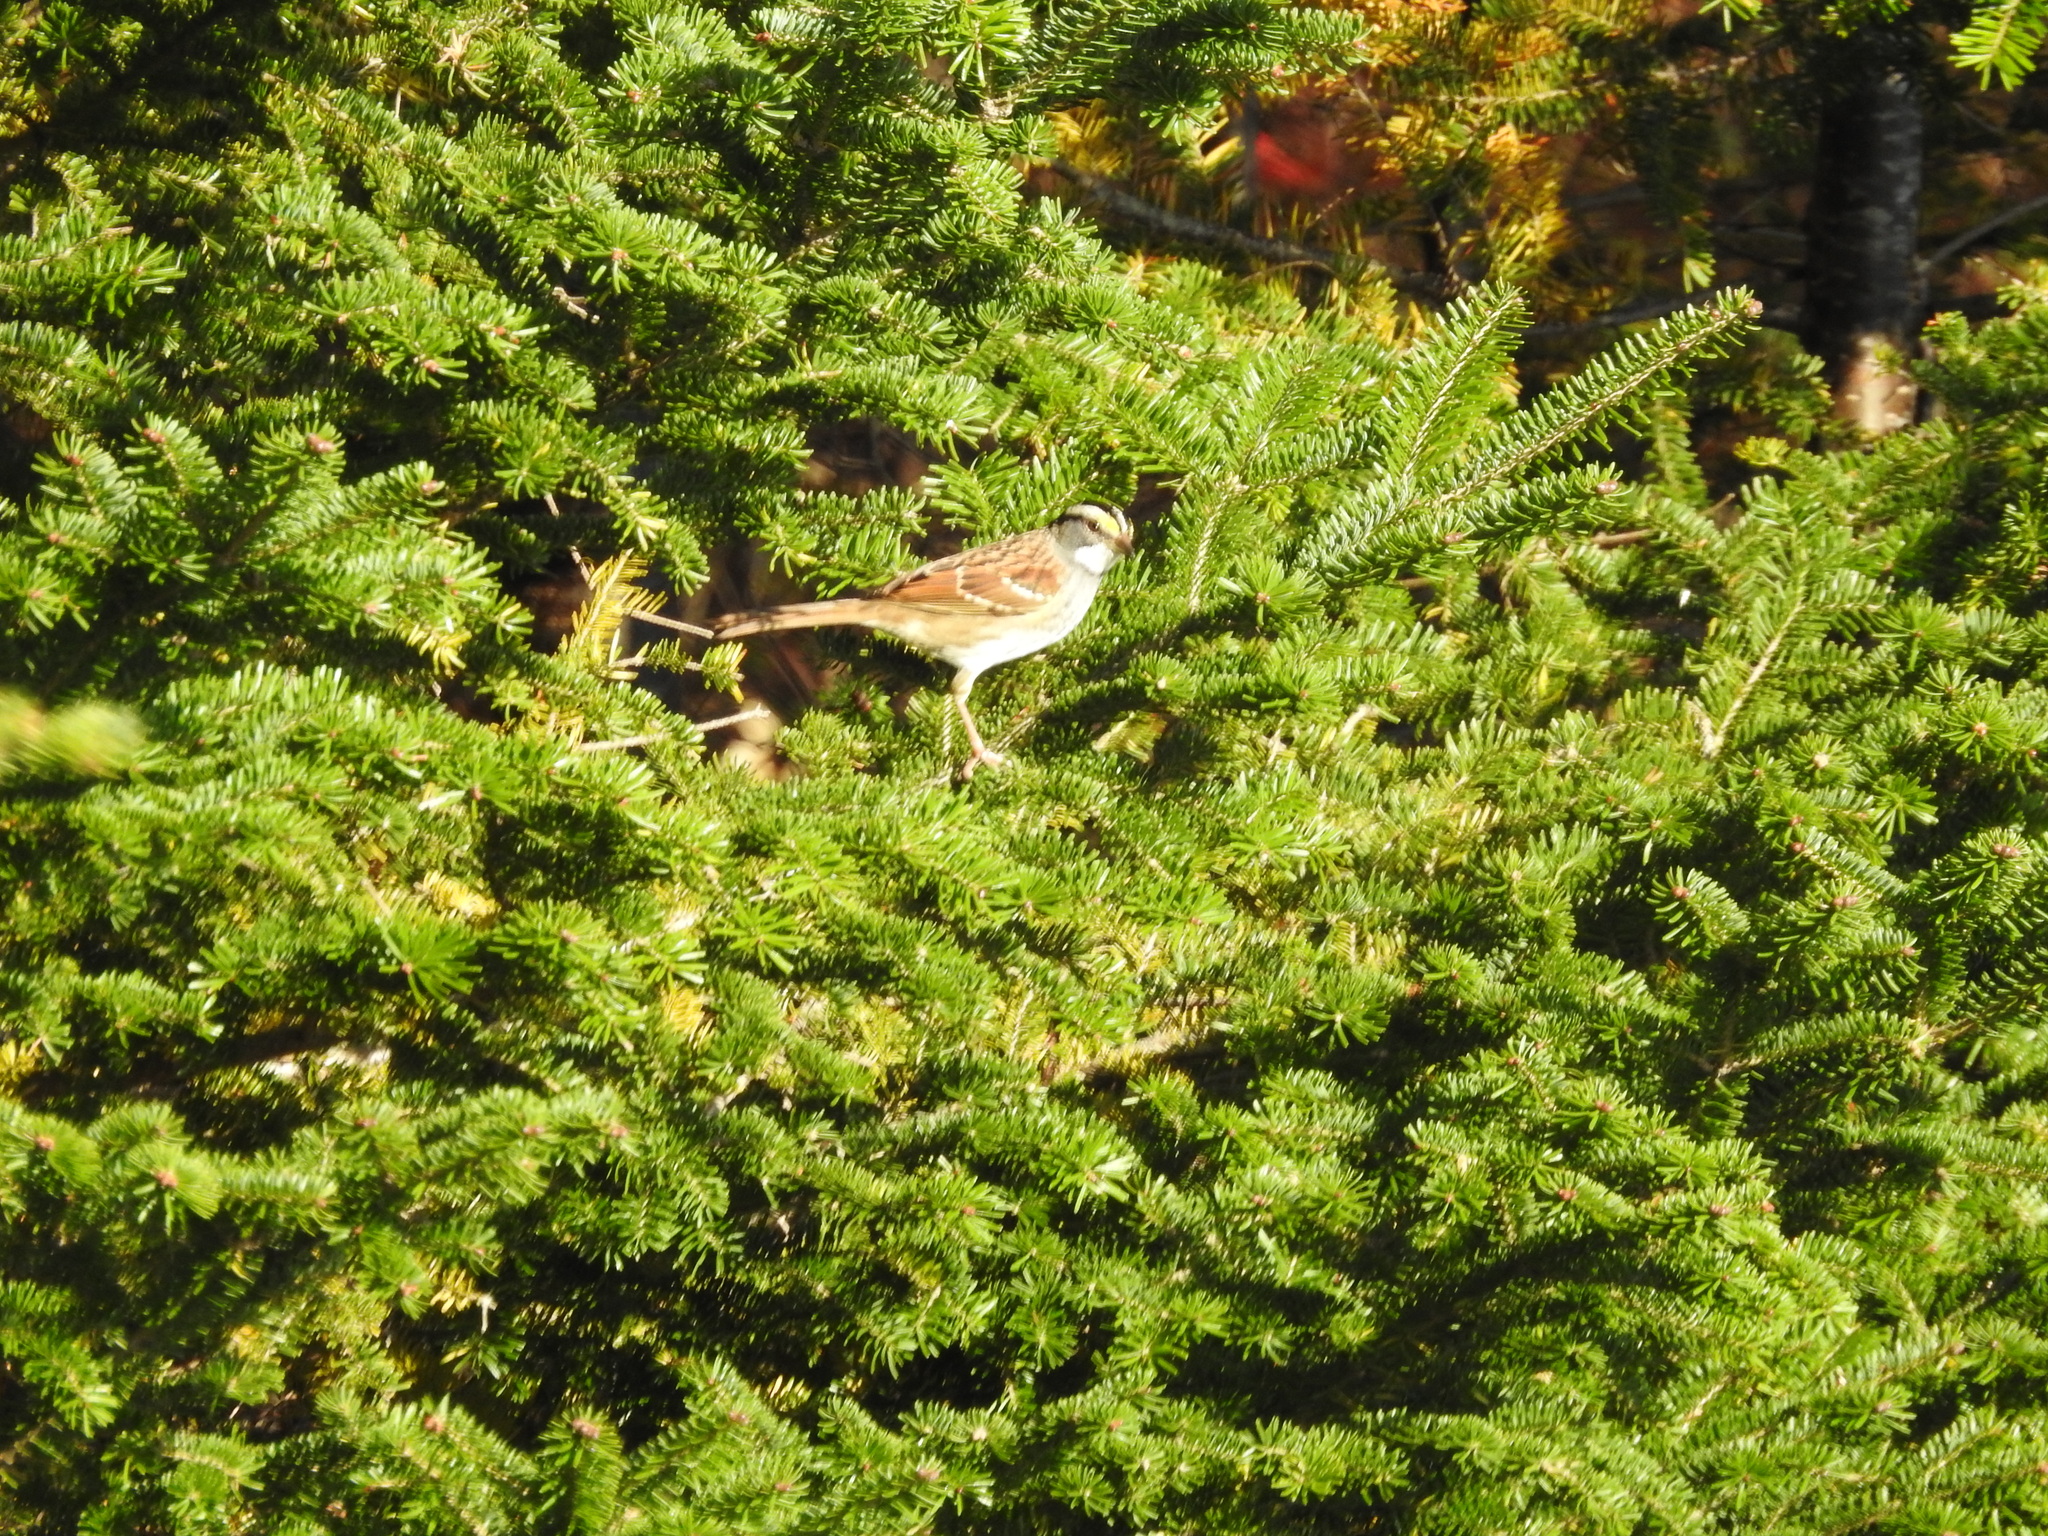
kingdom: Animalia
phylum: Chordata
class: Aves
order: Passeriformes
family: Passerellidae
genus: Zonotrichia
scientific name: Zonotrichia albicollis
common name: White-throated sparrow
